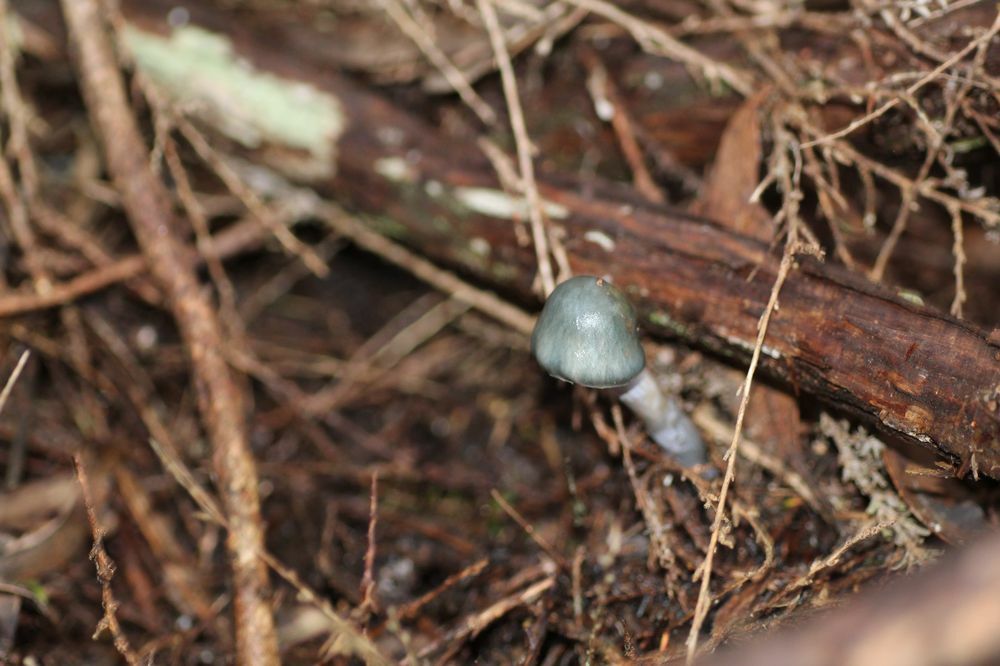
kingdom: Fungi
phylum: Basidiomycota
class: Agaricomycetes
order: Agaricales
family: Cortinariaceae
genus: Cortinarius
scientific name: Cortinarius rotundisporus
